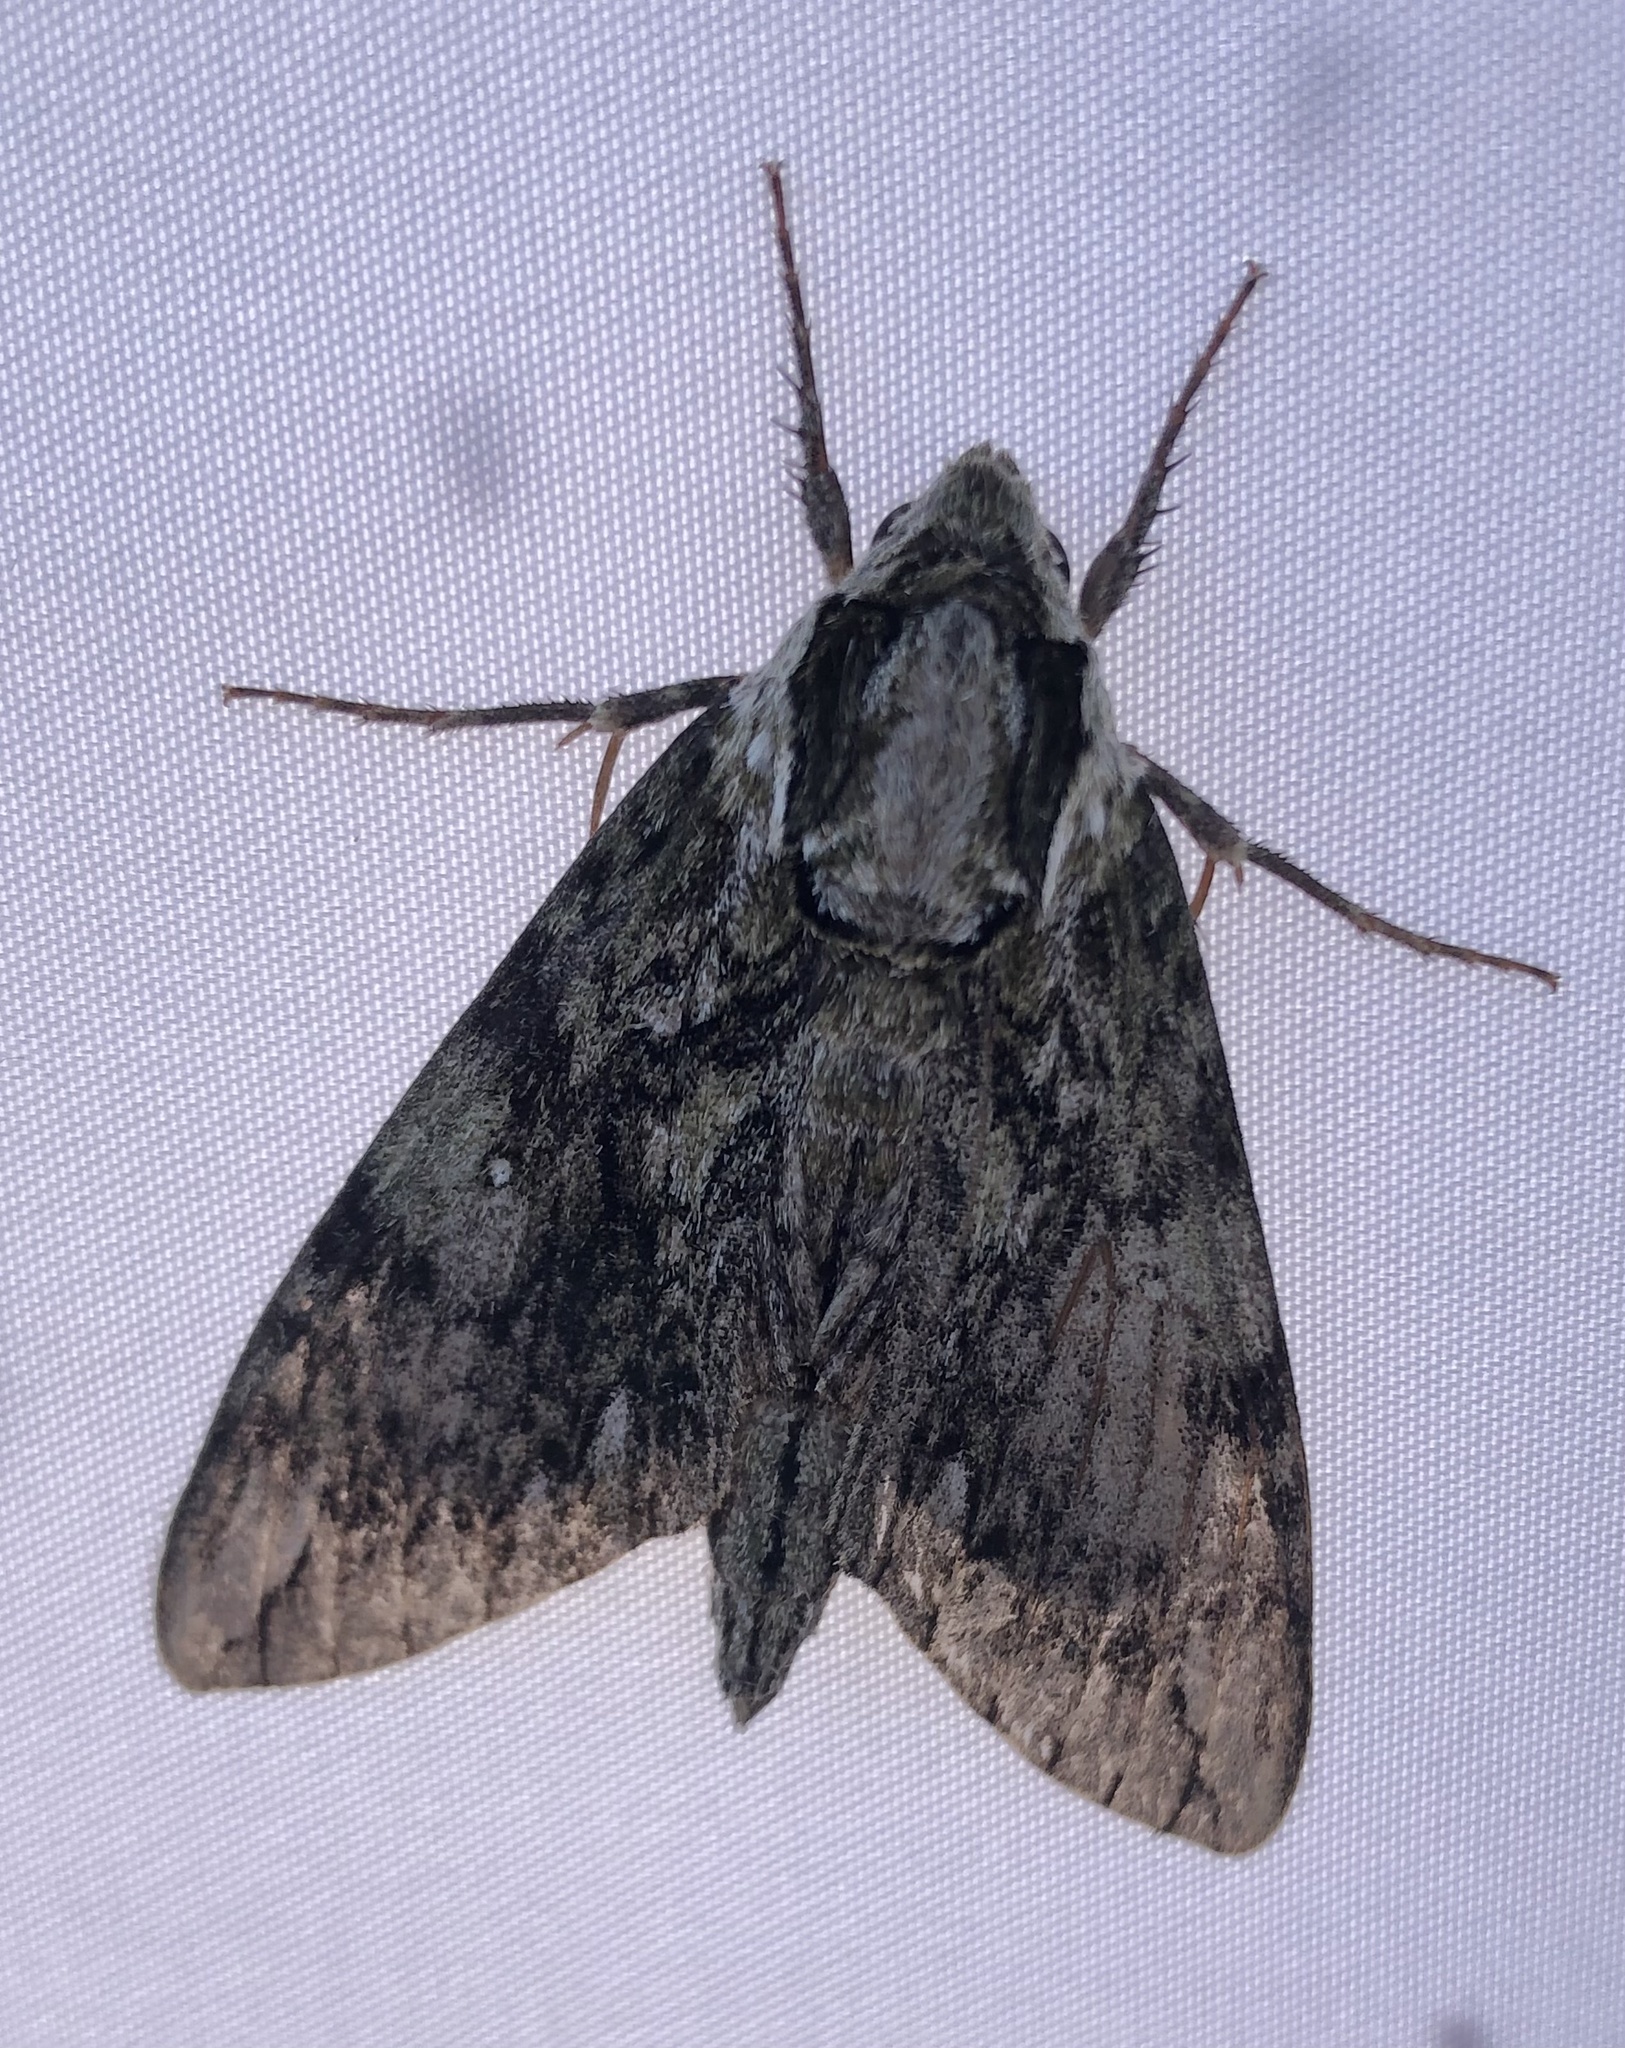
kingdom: Animalia
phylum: Arthropoda
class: Insecta
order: Lepidoptera
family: Sphingidae
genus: Ceratomia
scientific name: Ceratomia hageni
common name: Hagen's sphinx
